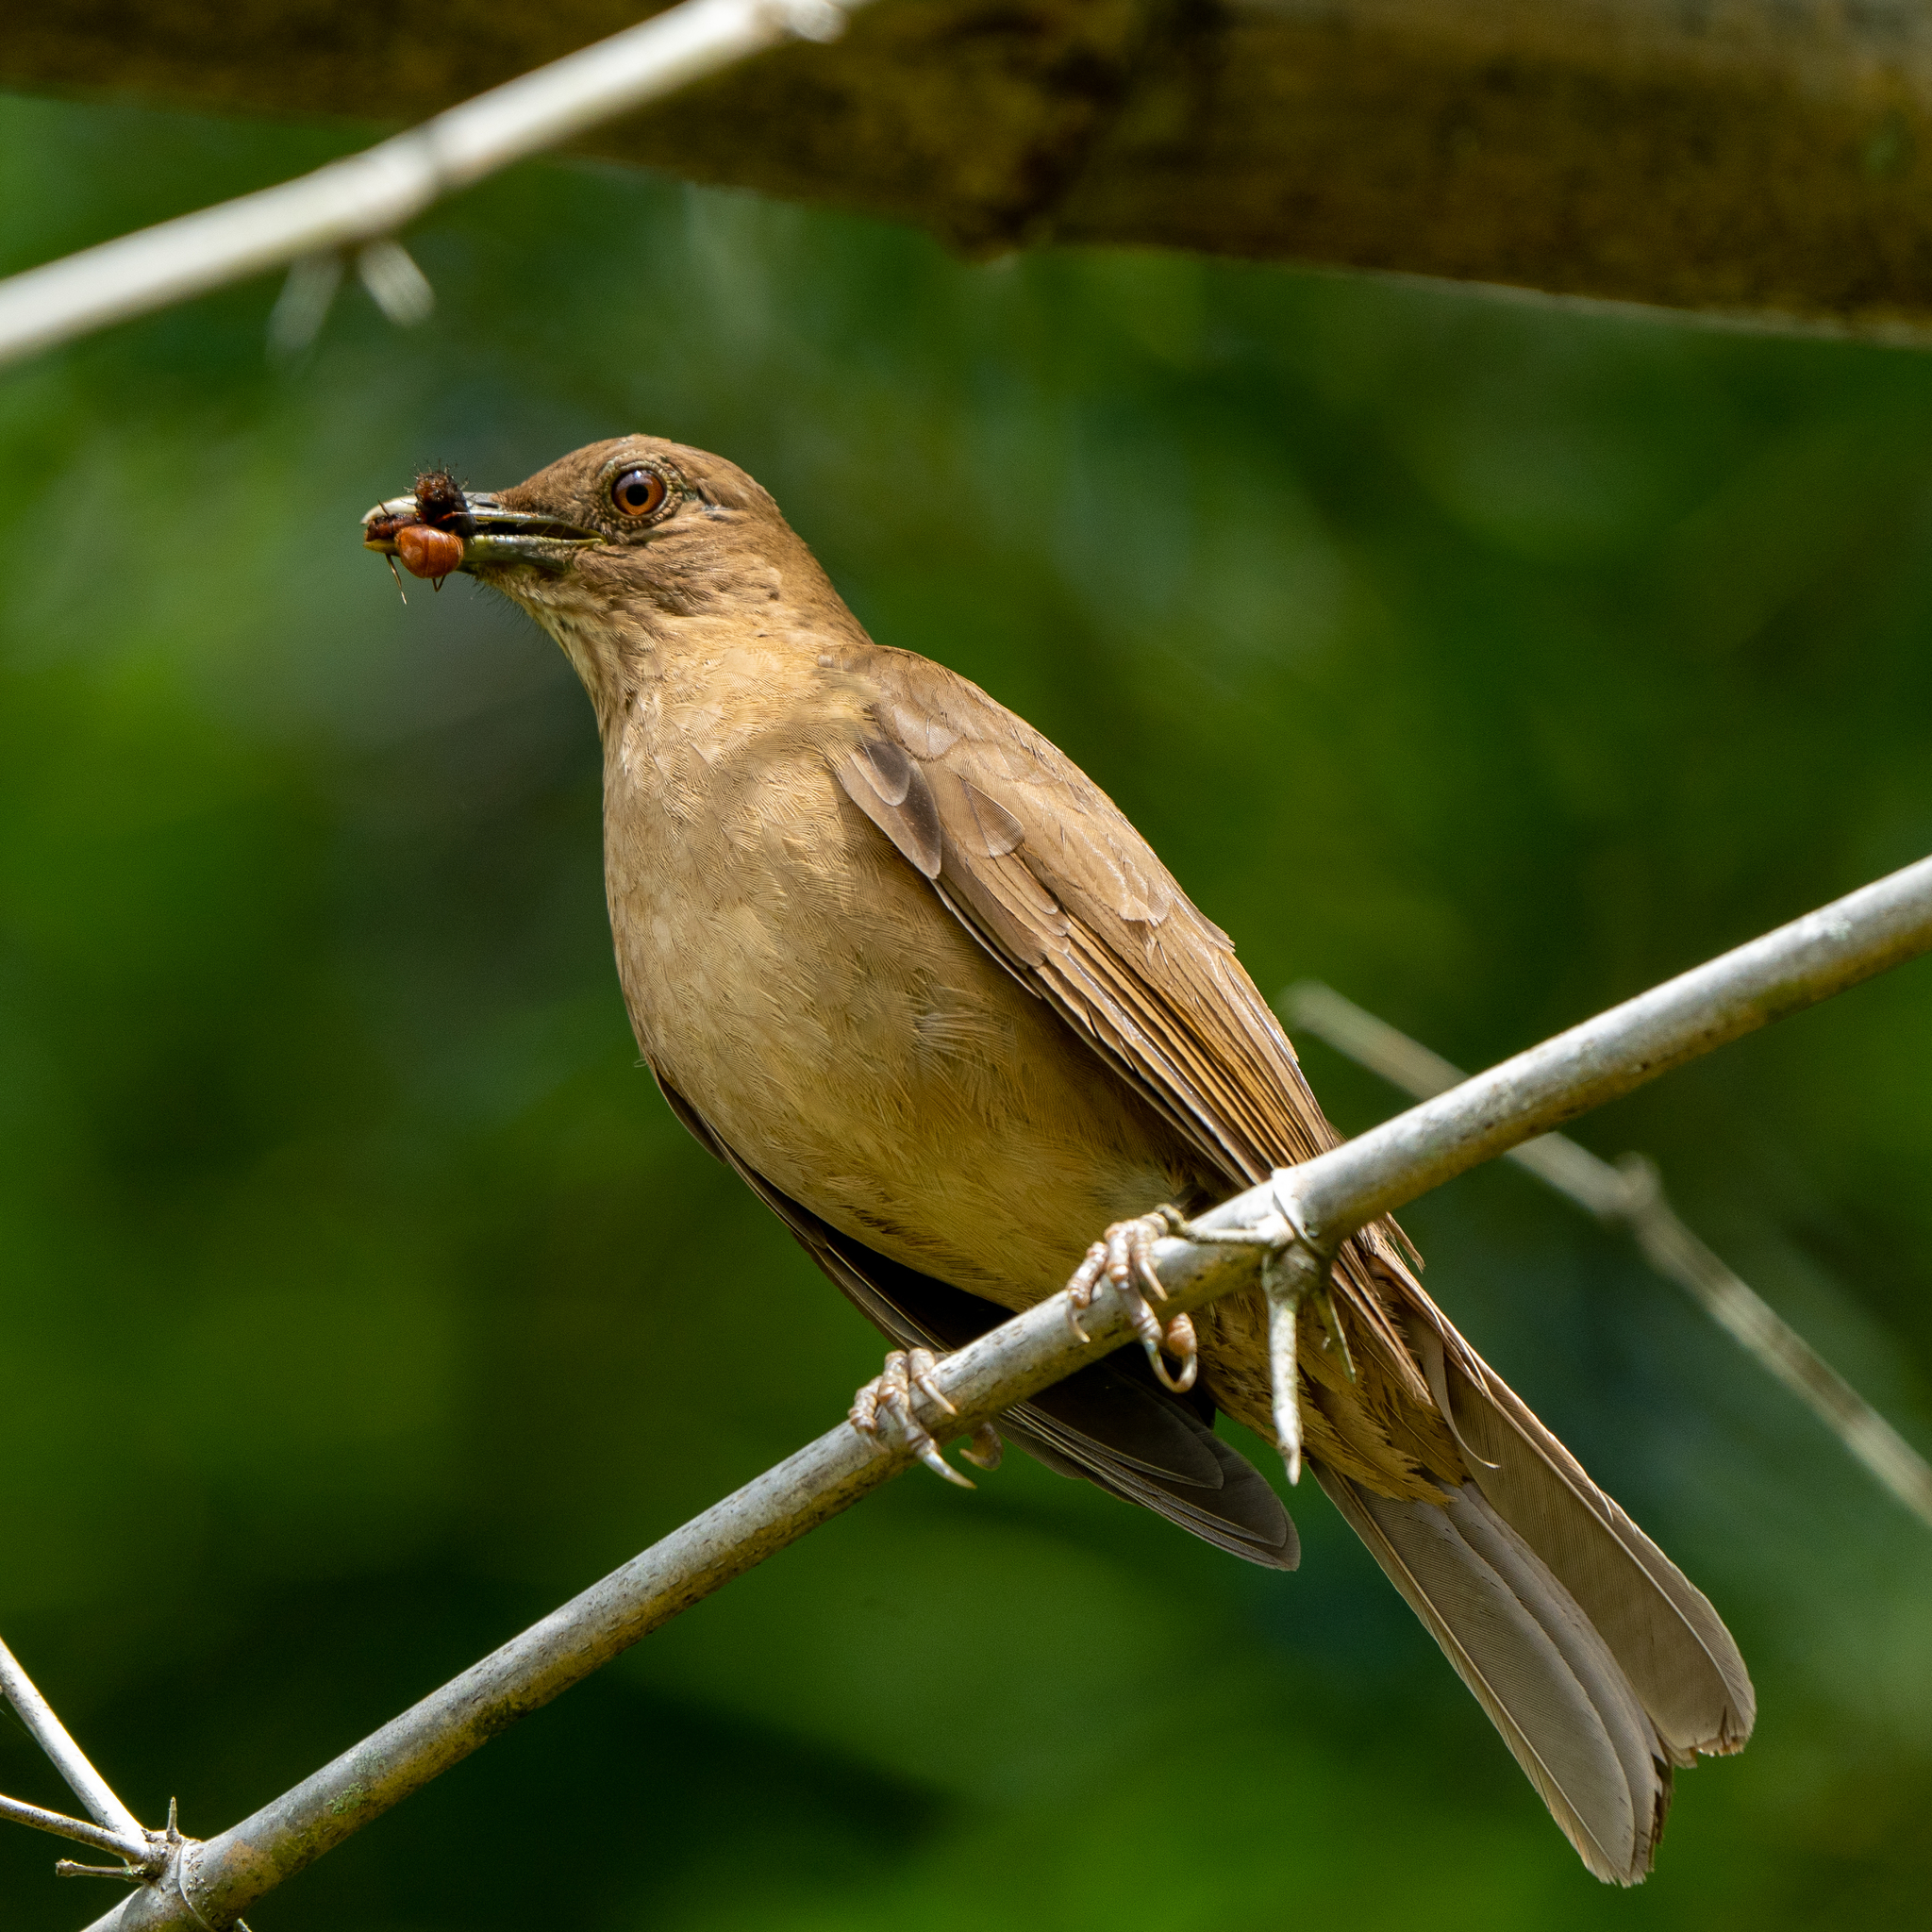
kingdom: Animalia
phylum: Chordata
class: Aves
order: Passeriformes
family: Turdidae
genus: Turdus
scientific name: Turdus grayi
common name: Clay-colored thrush
